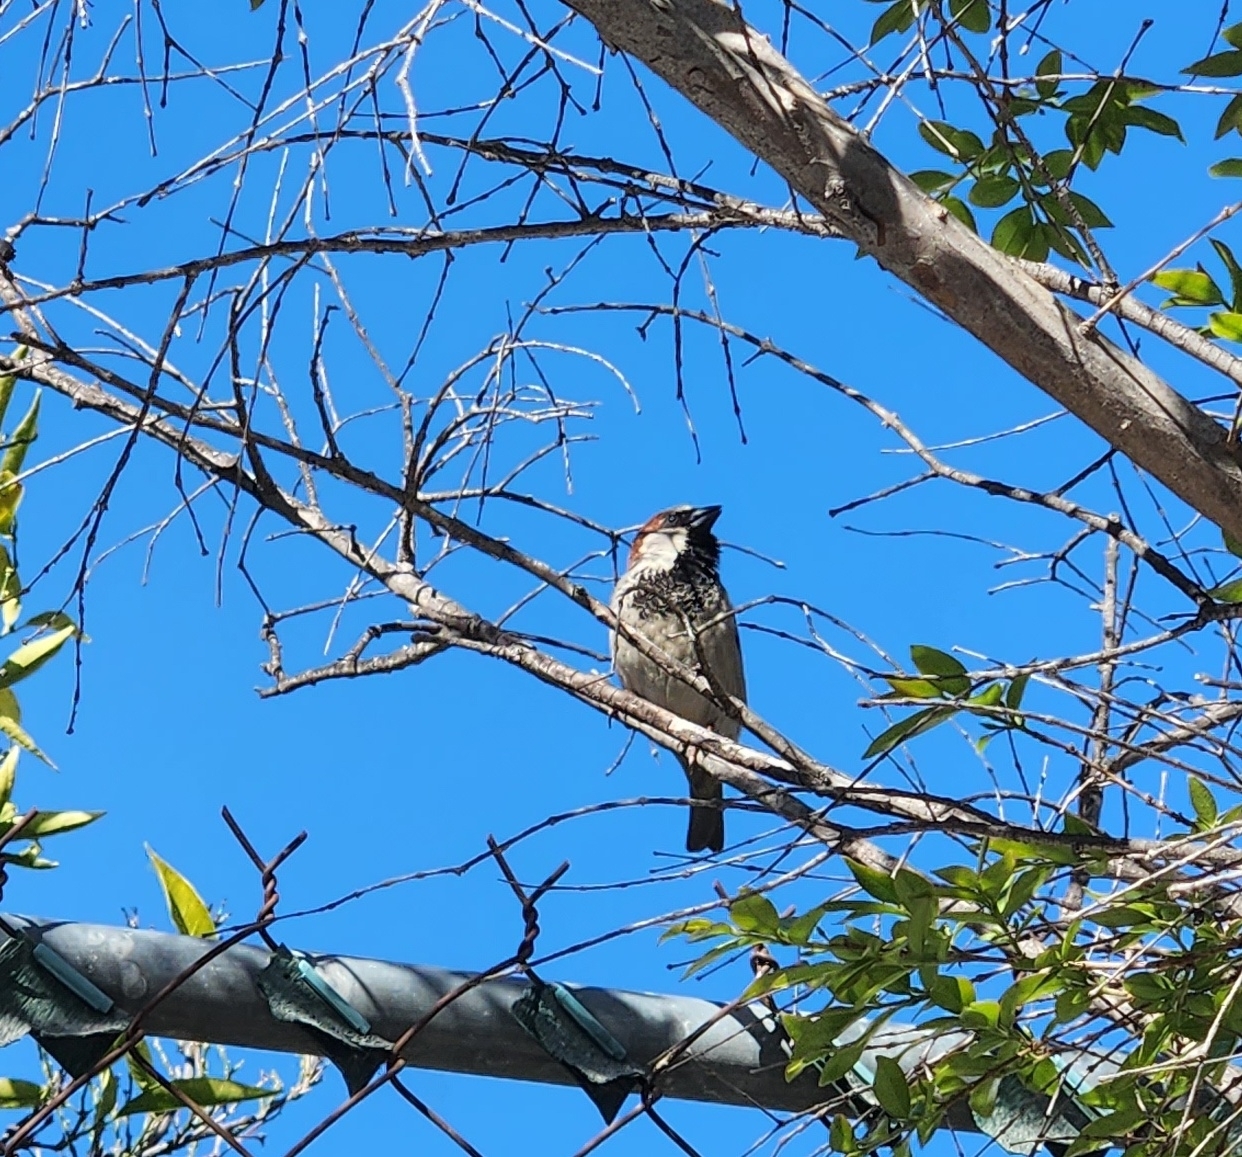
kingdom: Animalia
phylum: Chordata
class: Aves
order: Passeriformes
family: Passeridae
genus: Passer
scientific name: Passer domesticus
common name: House sparrow
